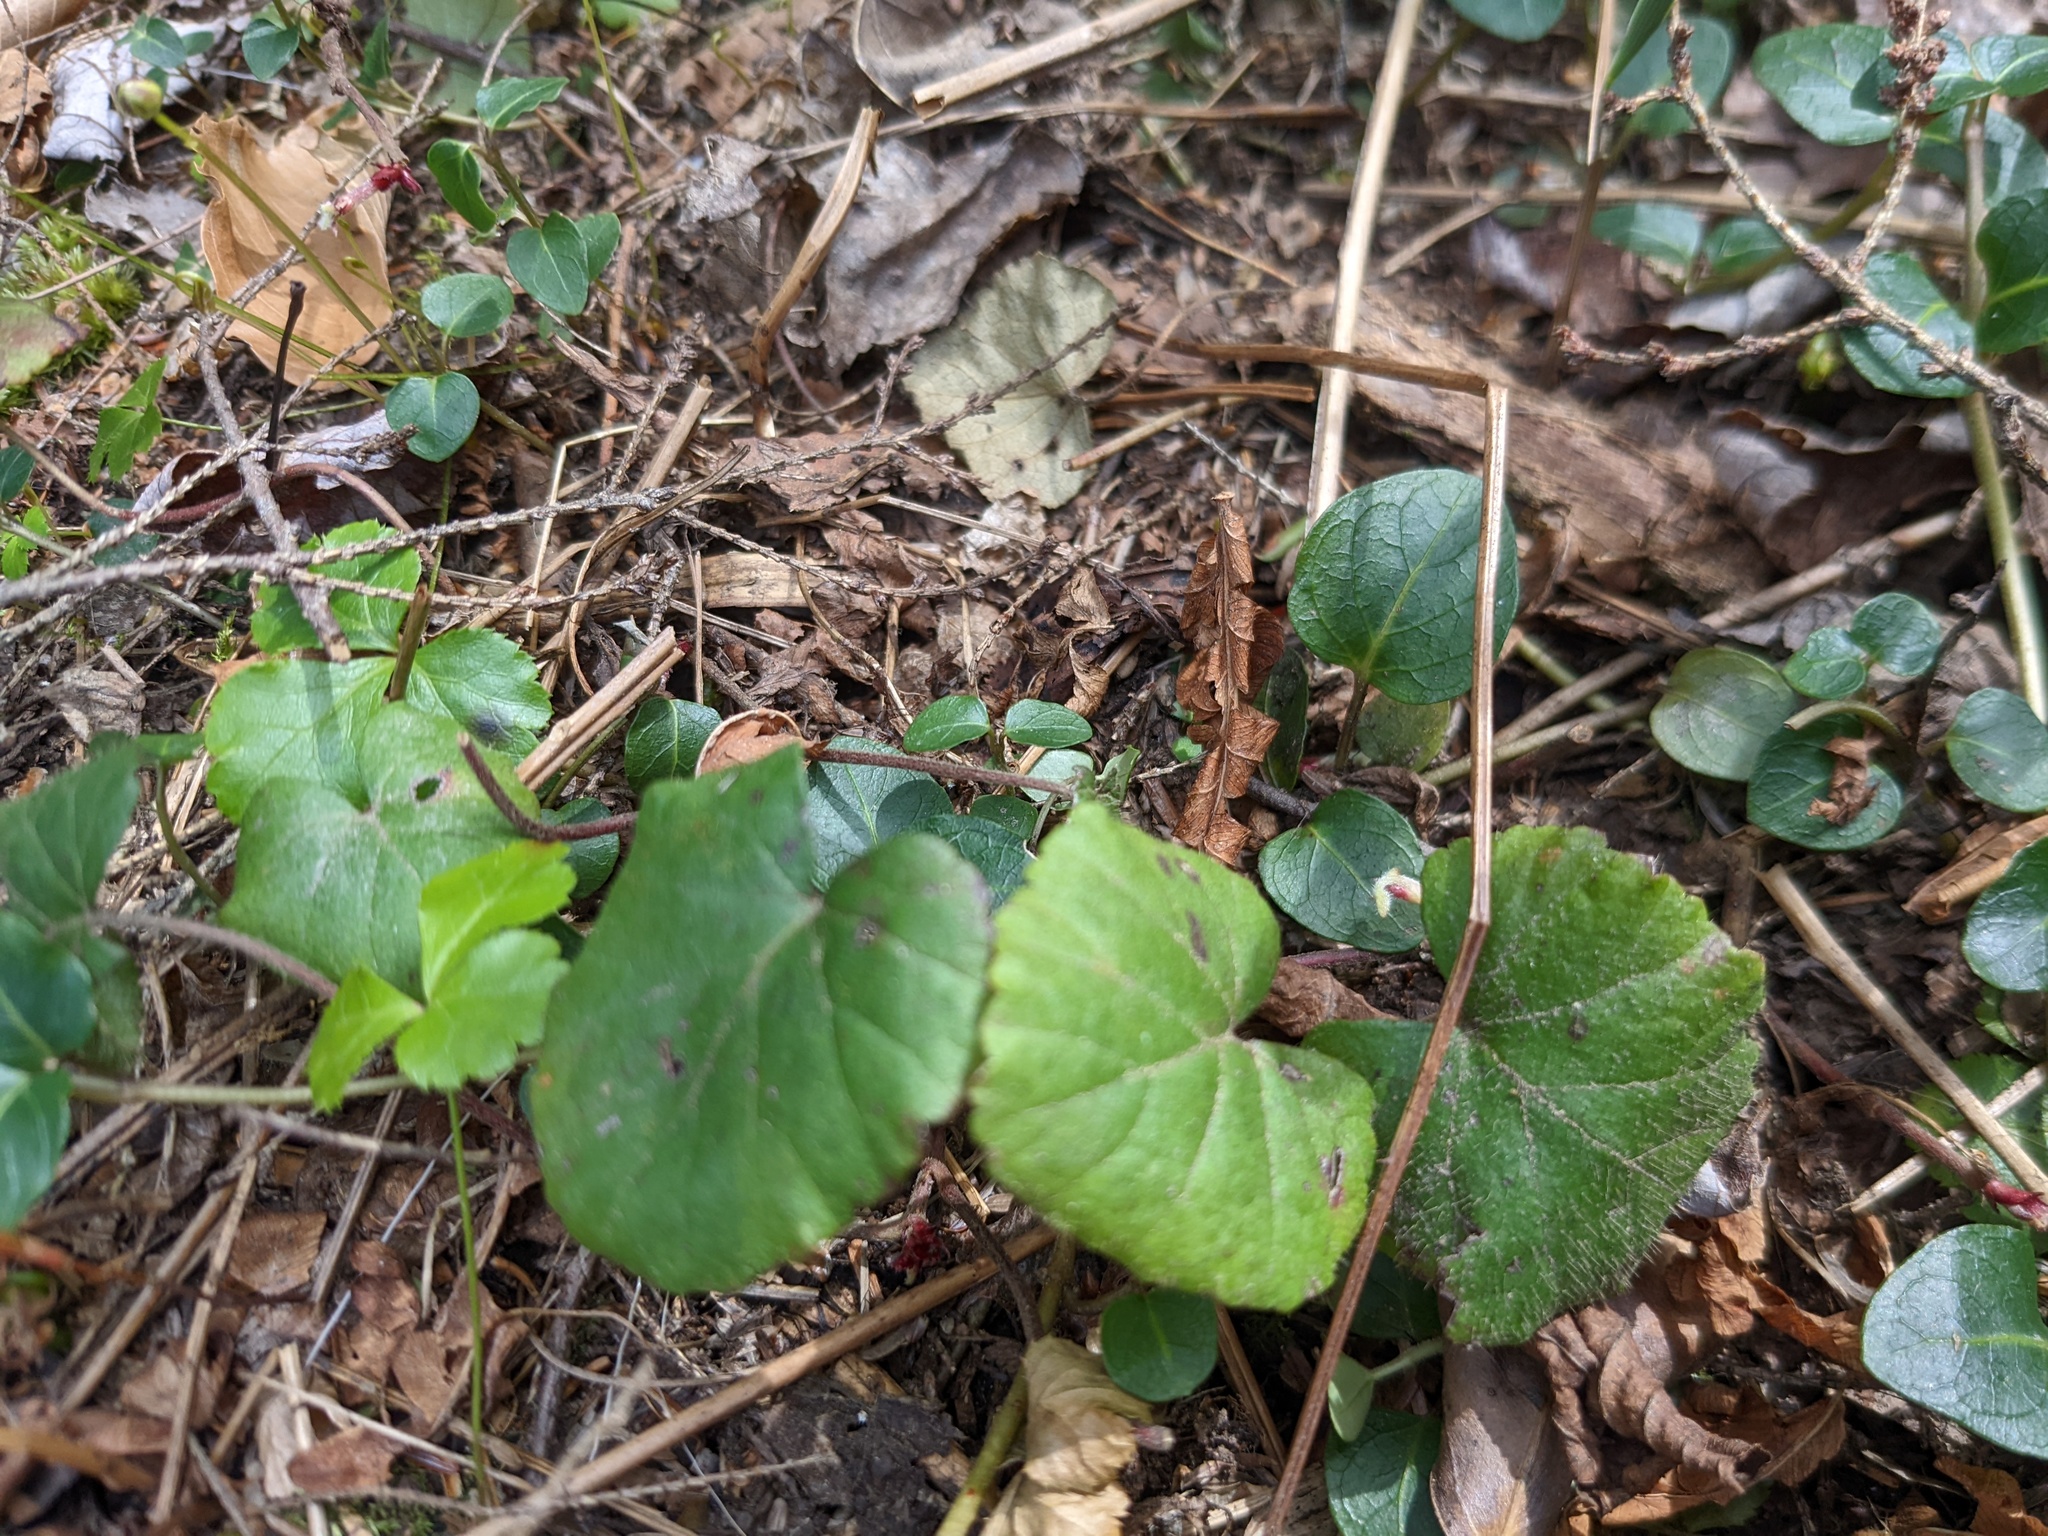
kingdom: Plantae
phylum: Tracheophyta
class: Magnoliopsida
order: Rosales
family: Rosaceae
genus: Dalibarda
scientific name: Dalibarda repens
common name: Dewdrop
